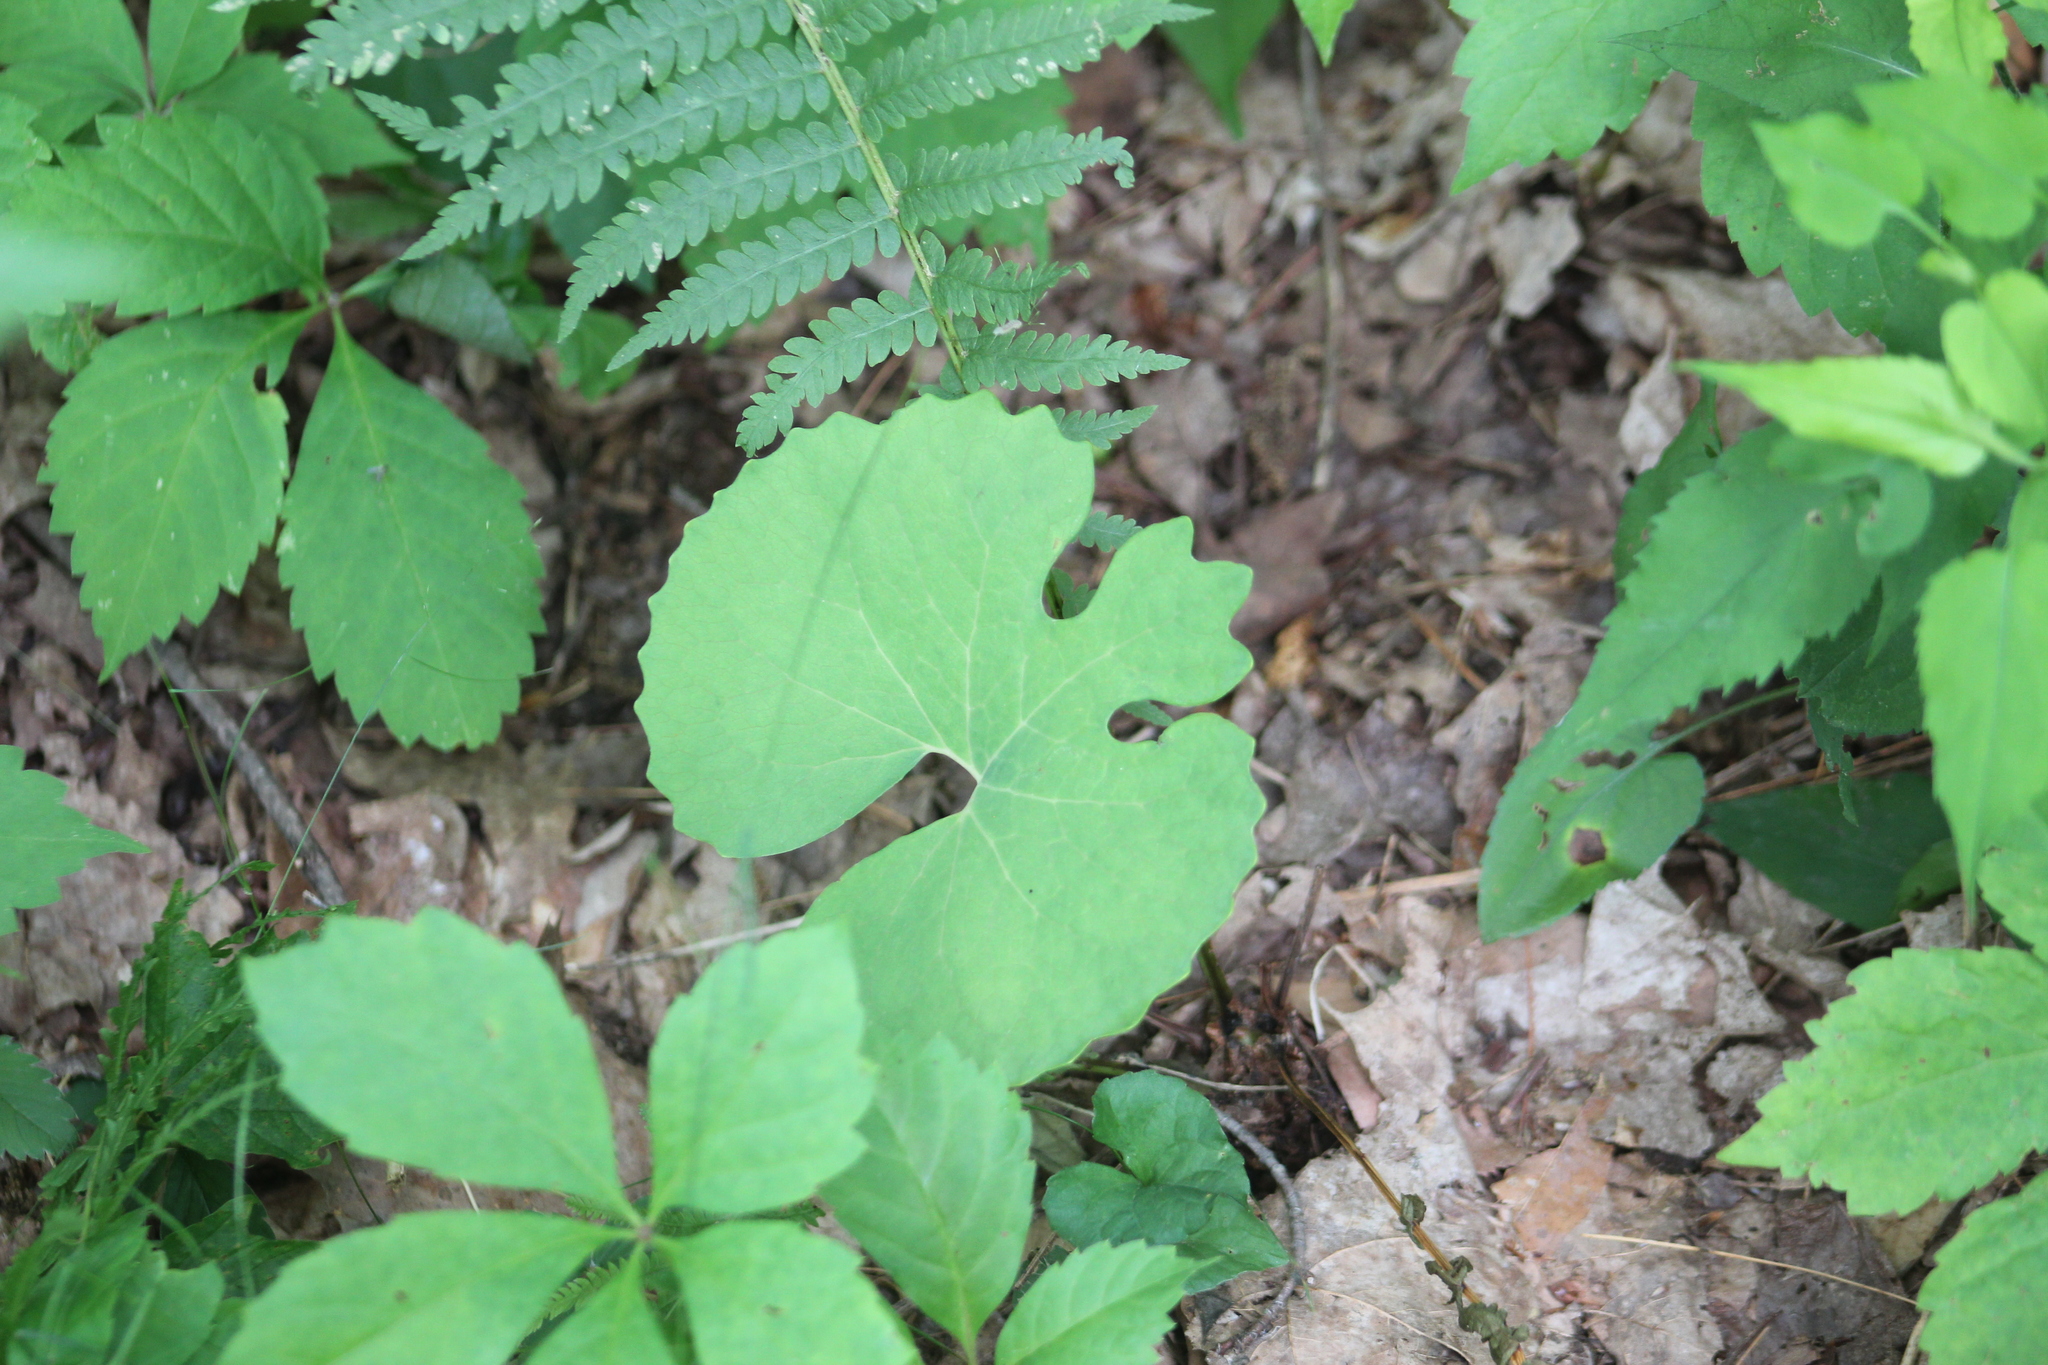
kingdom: Plantae
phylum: Tracheophyta
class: Magnoliopsida
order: Ranunculales
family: Papaveraceae
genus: Sanguinaria
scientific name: Sanguinaria canadensis
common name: Bloodroot
